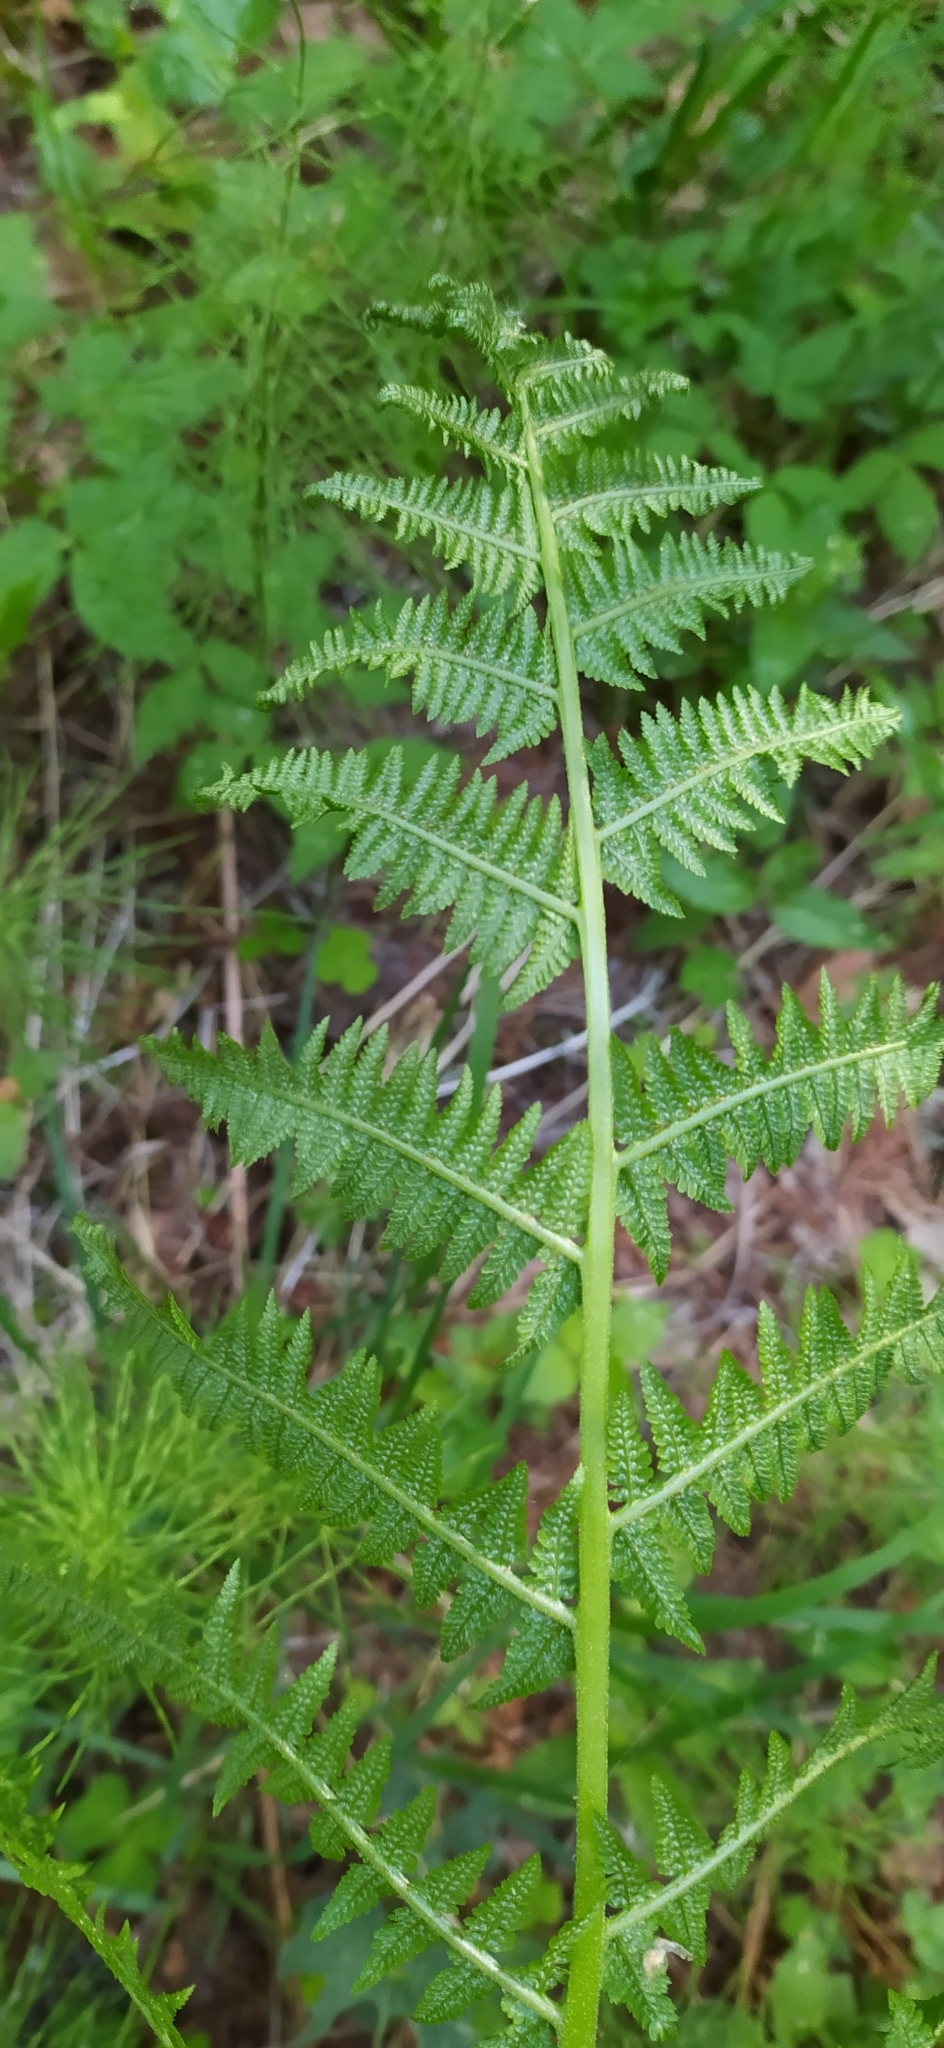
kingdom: Plantae
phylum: Tracheophyta
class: Polypodiopsida
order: Polypodiales
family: Athyriaceae
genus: Athyrium
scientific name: Athyrium filix-femina
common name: Lady fern
